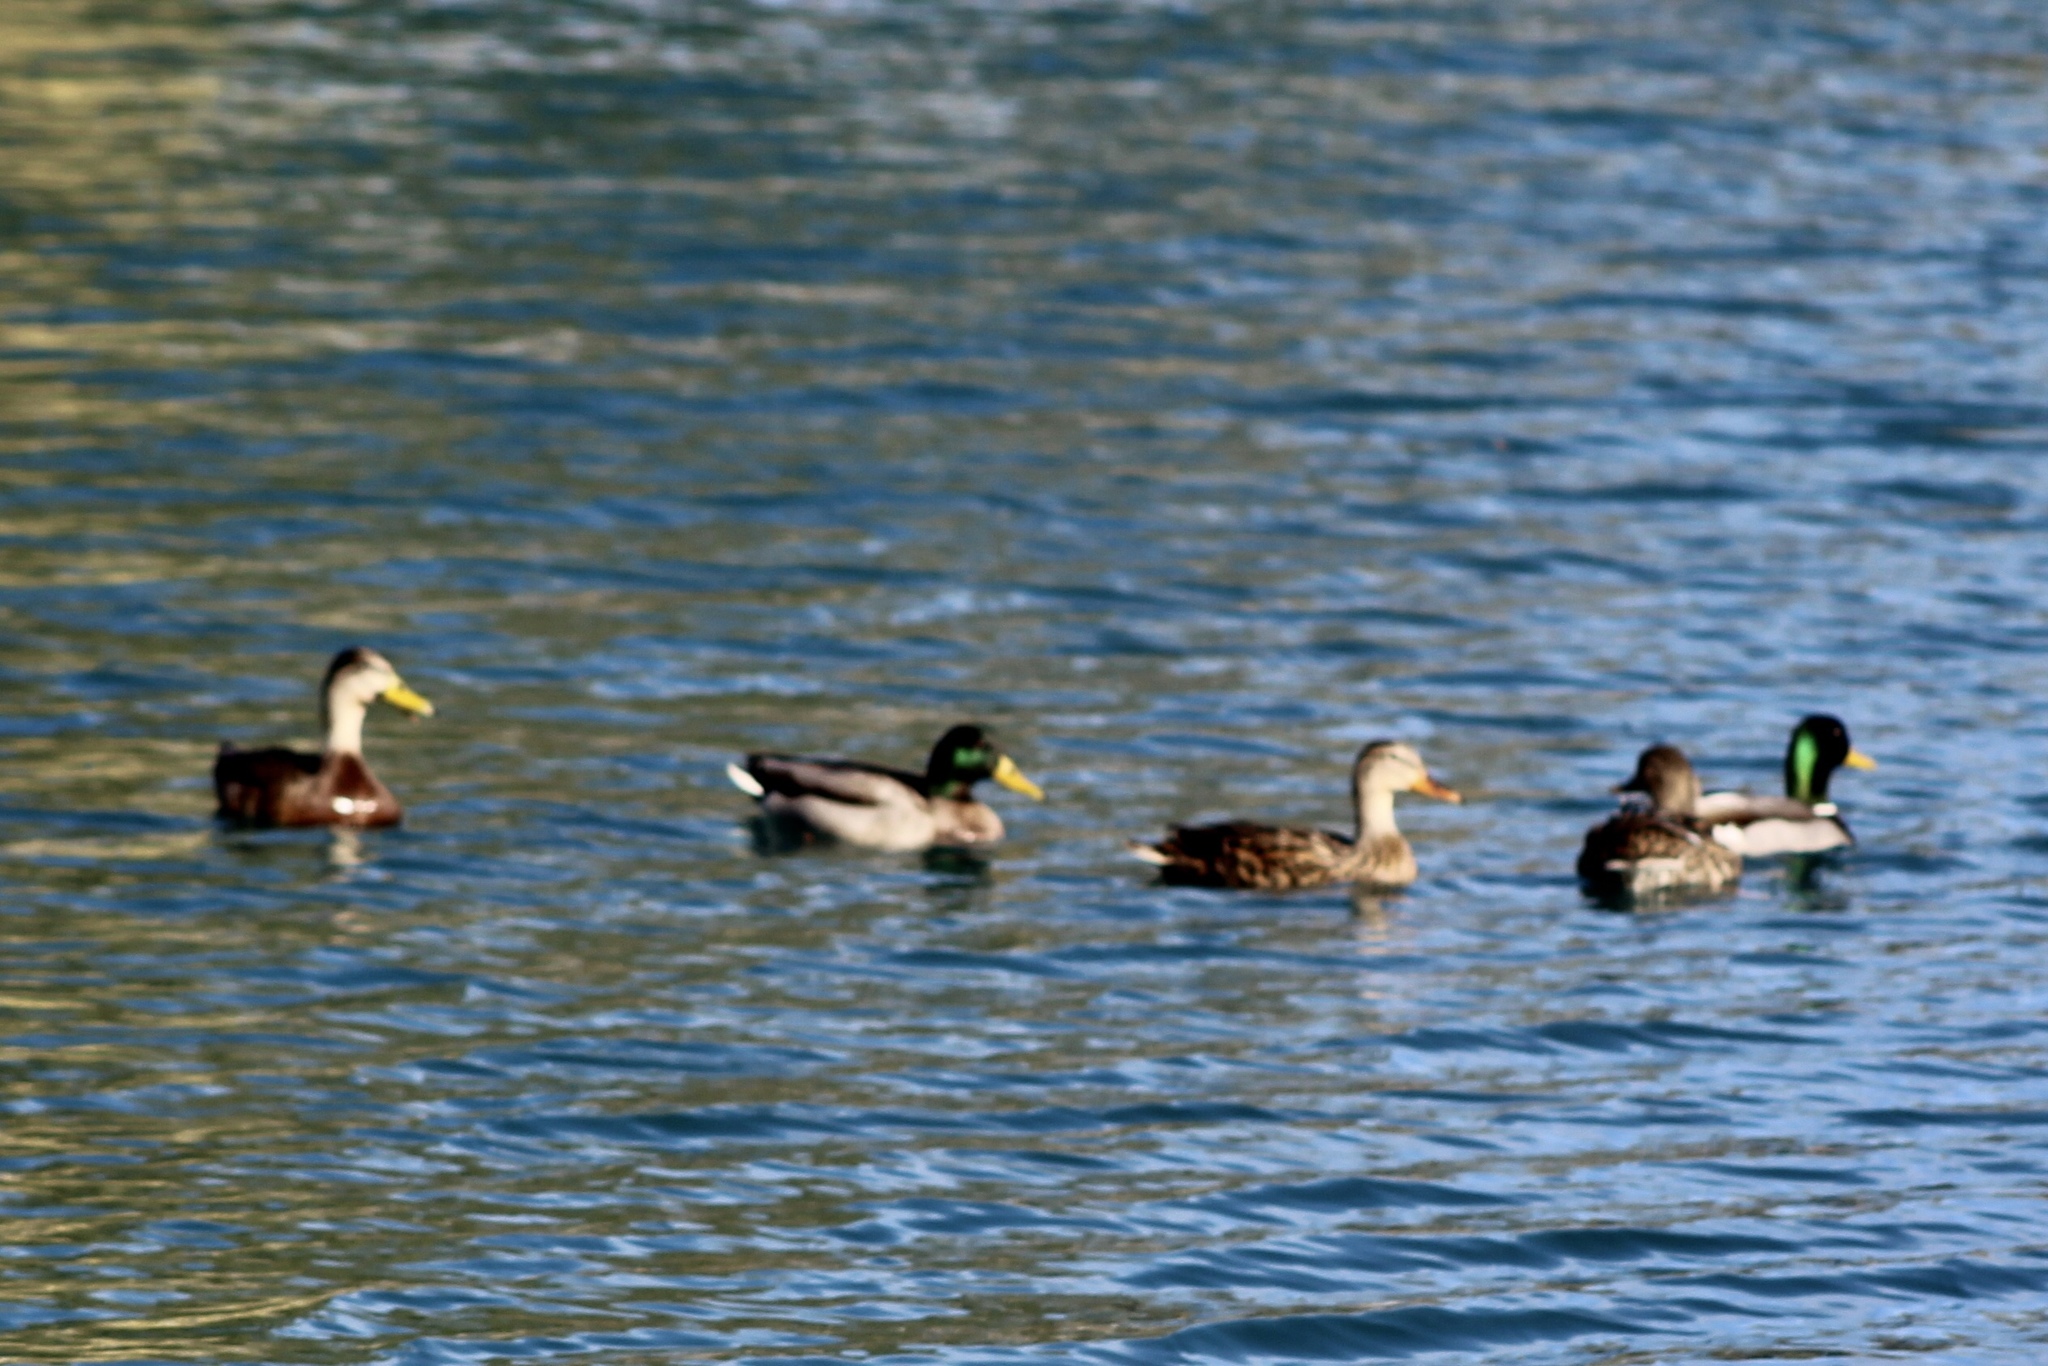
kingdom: Animalia
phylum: Chordata
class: Aves
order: Anseriformes
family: Anatidae
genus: Anas
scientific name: Anas platyrhynchos
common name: Mallard
